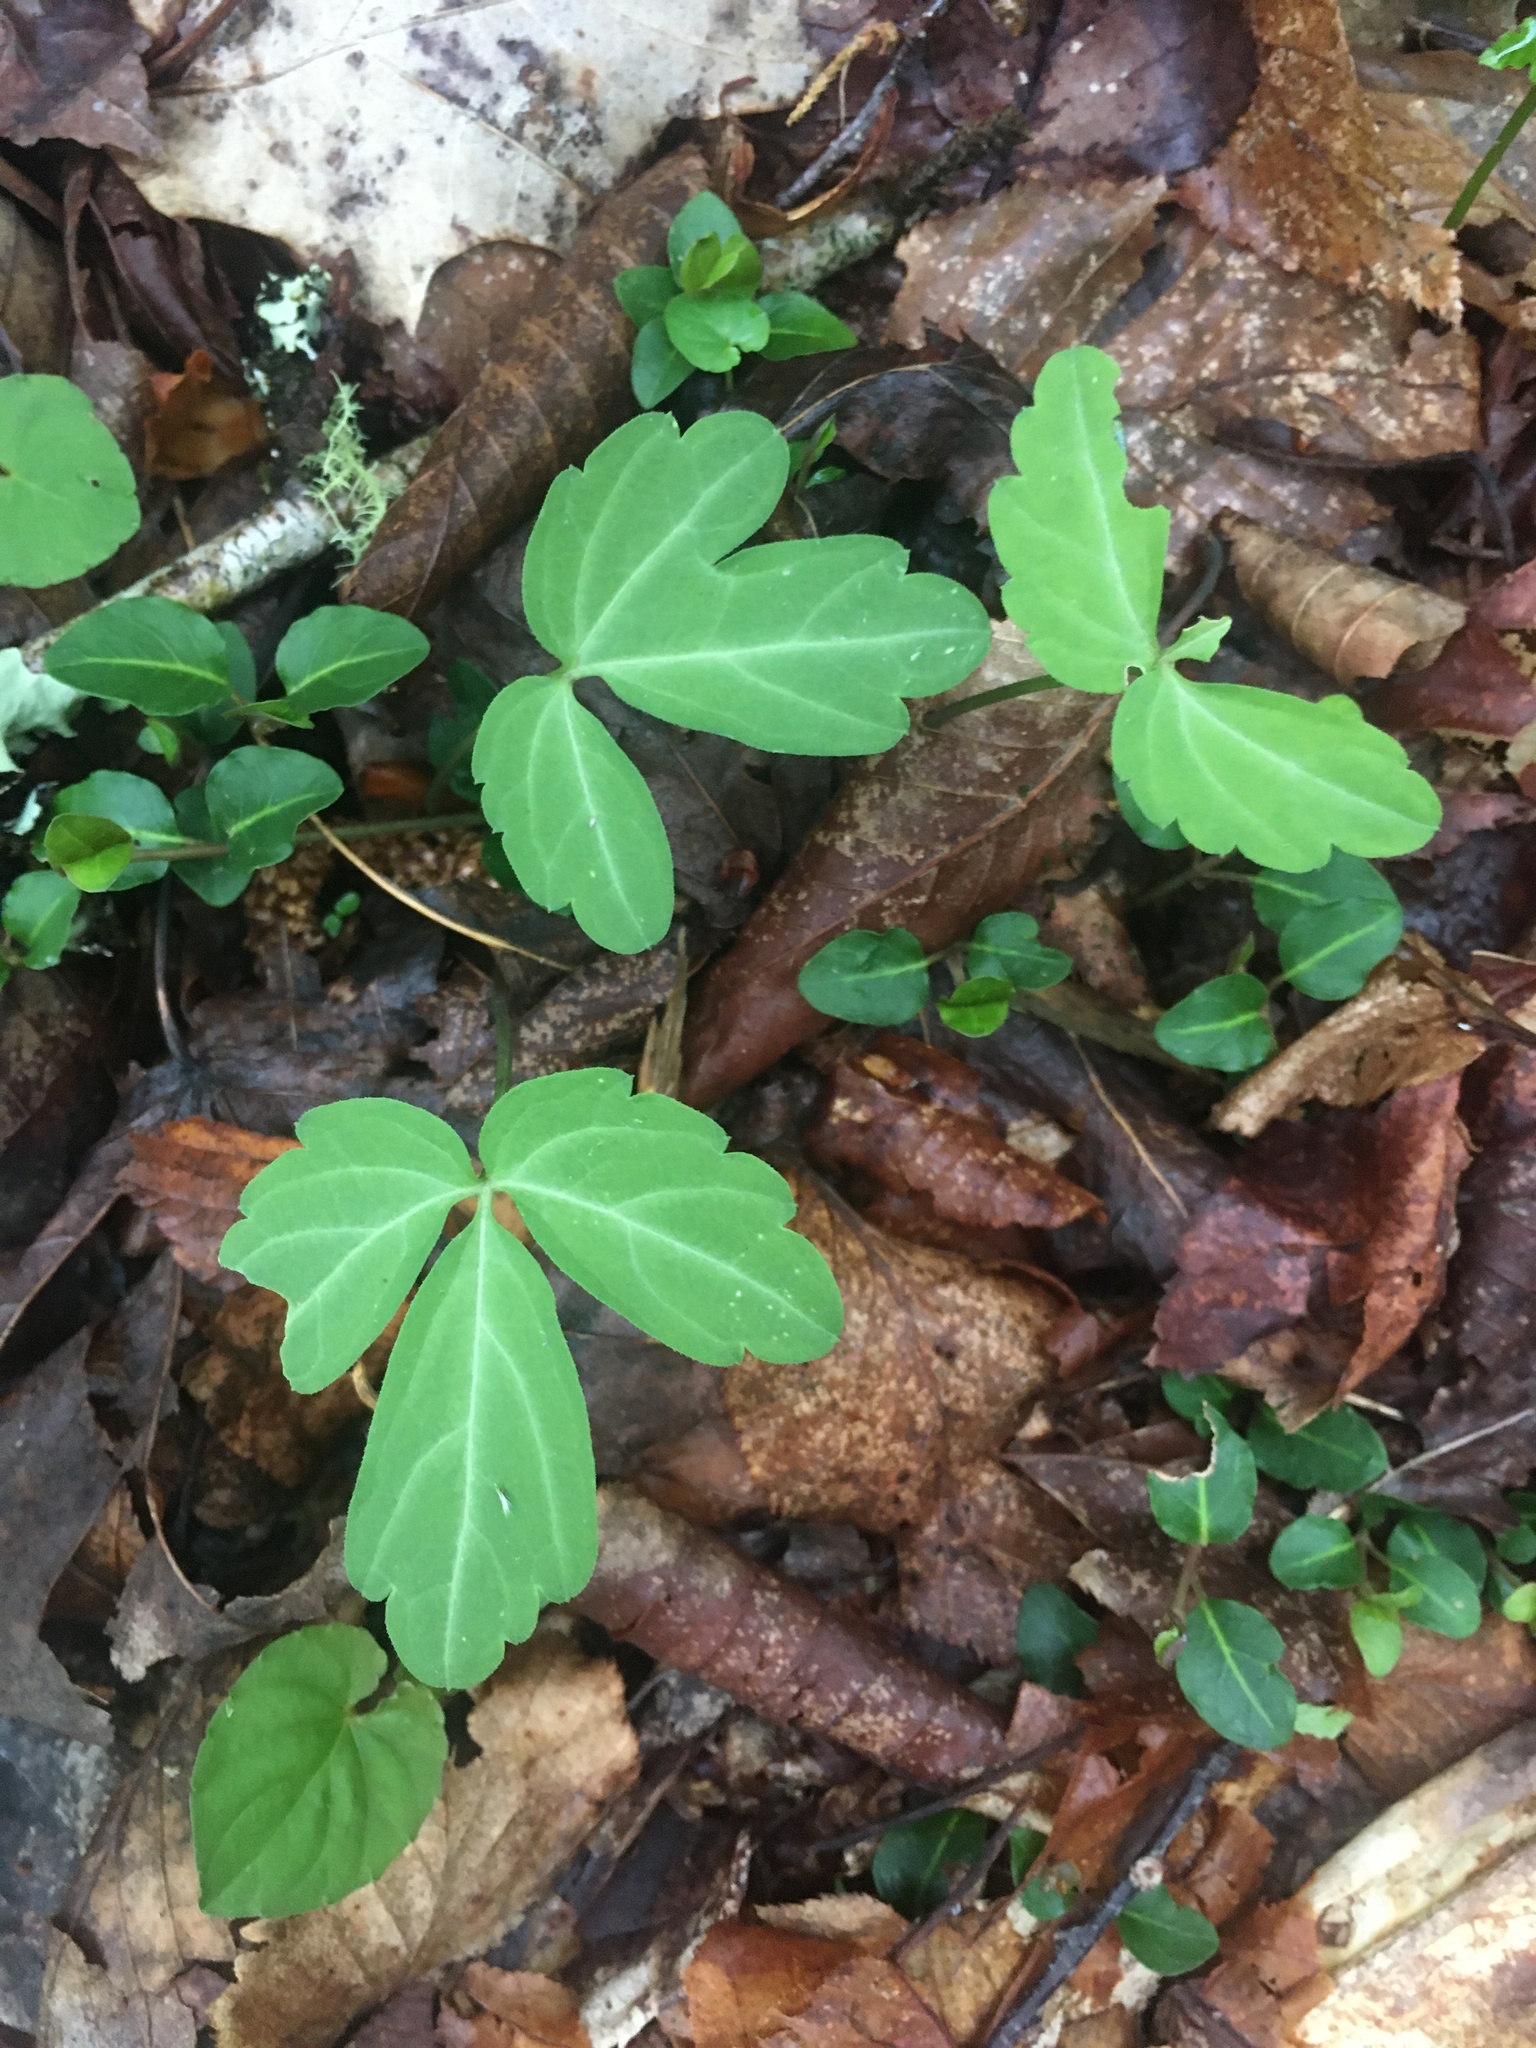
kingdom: Plantae
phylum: Tracheophyta
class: Magnoliopsida
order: Brassicales
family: Brassicaceae
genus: Cardamine
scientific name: Cardamine diphylla
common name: Broad-leaved toothwort
